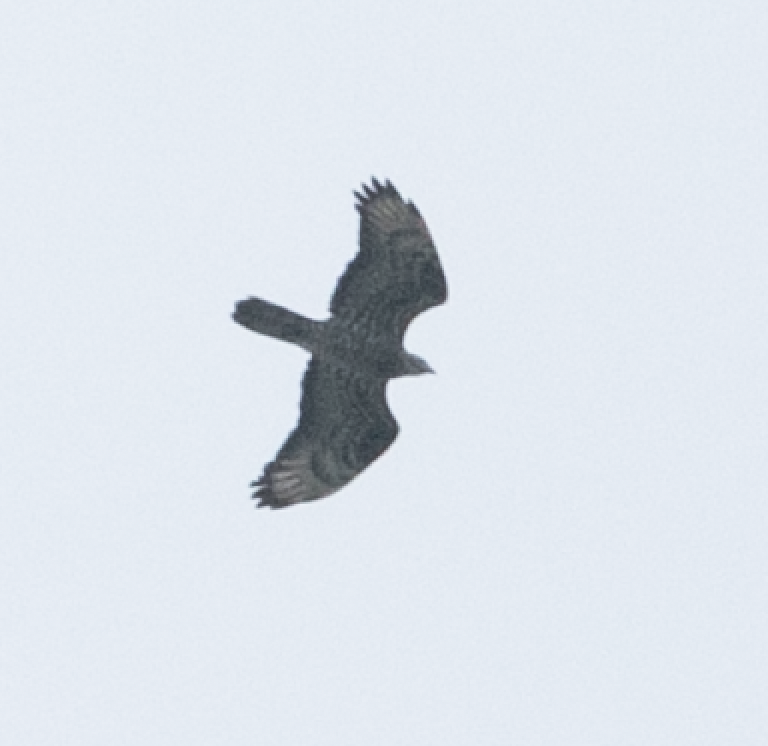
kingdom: Animalia
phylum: Chordata
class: Aves
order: Accipitriformes
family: Accipitridae
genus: Pernis
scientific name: Pernis apivorus
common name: European honey buzzard
